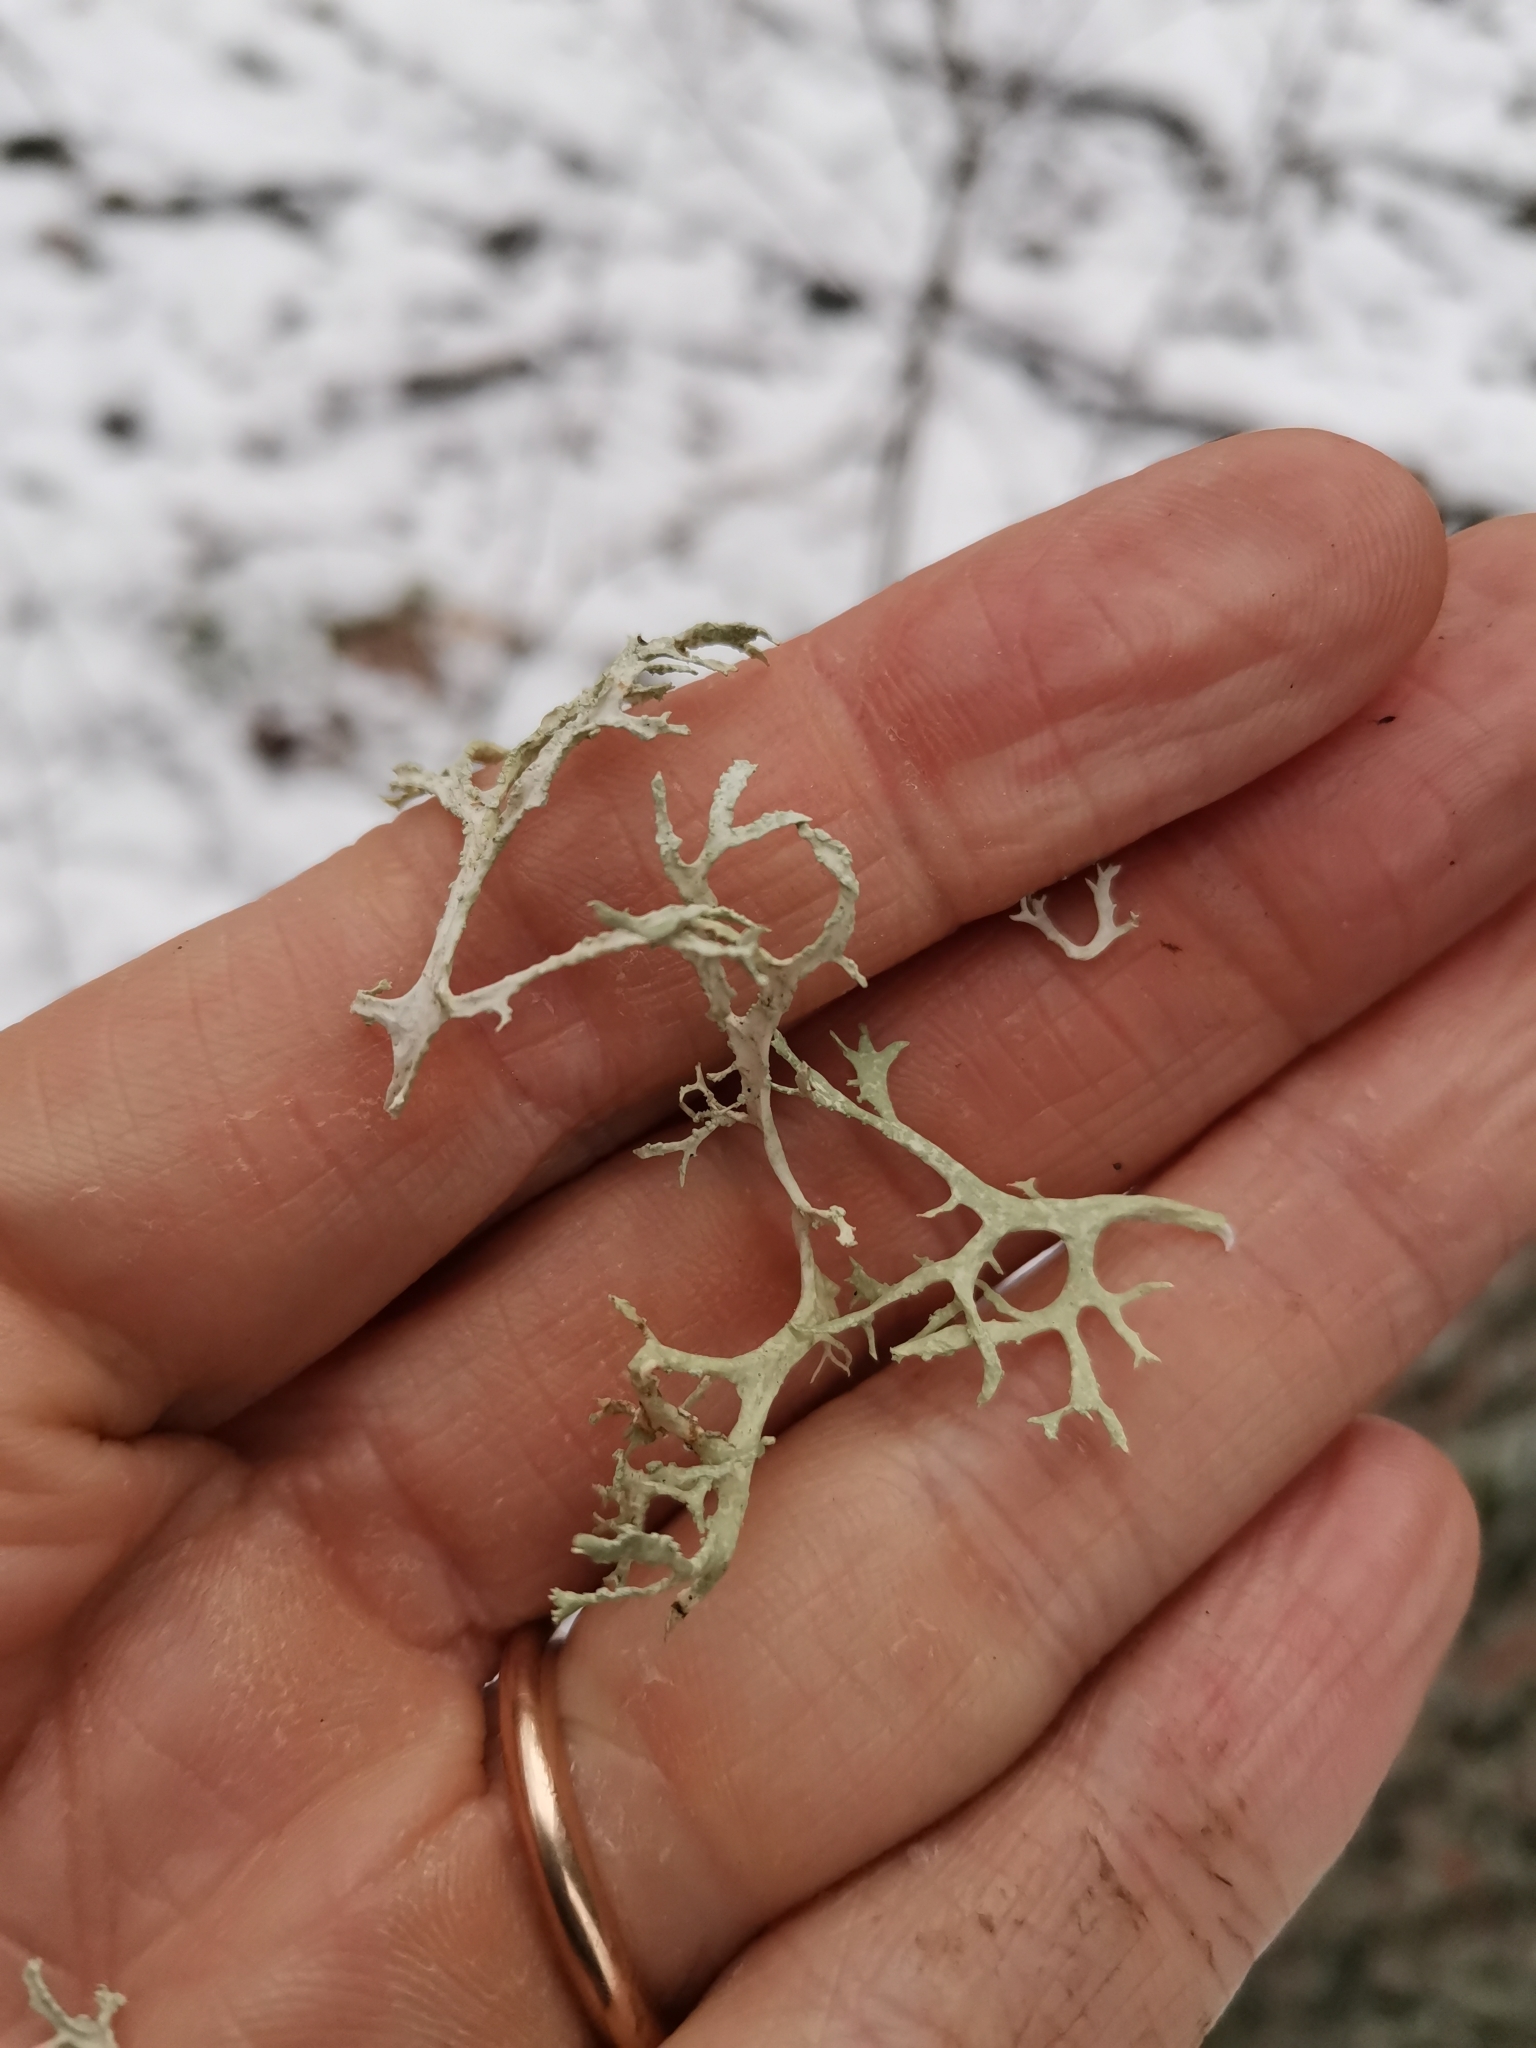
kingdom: Fungi
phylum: Ascomycota
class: Lecanoromycetes
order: Lecanorales
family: Parmeliaceae
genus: Evernia
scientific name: Evernia prunastri
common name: Oak moss
